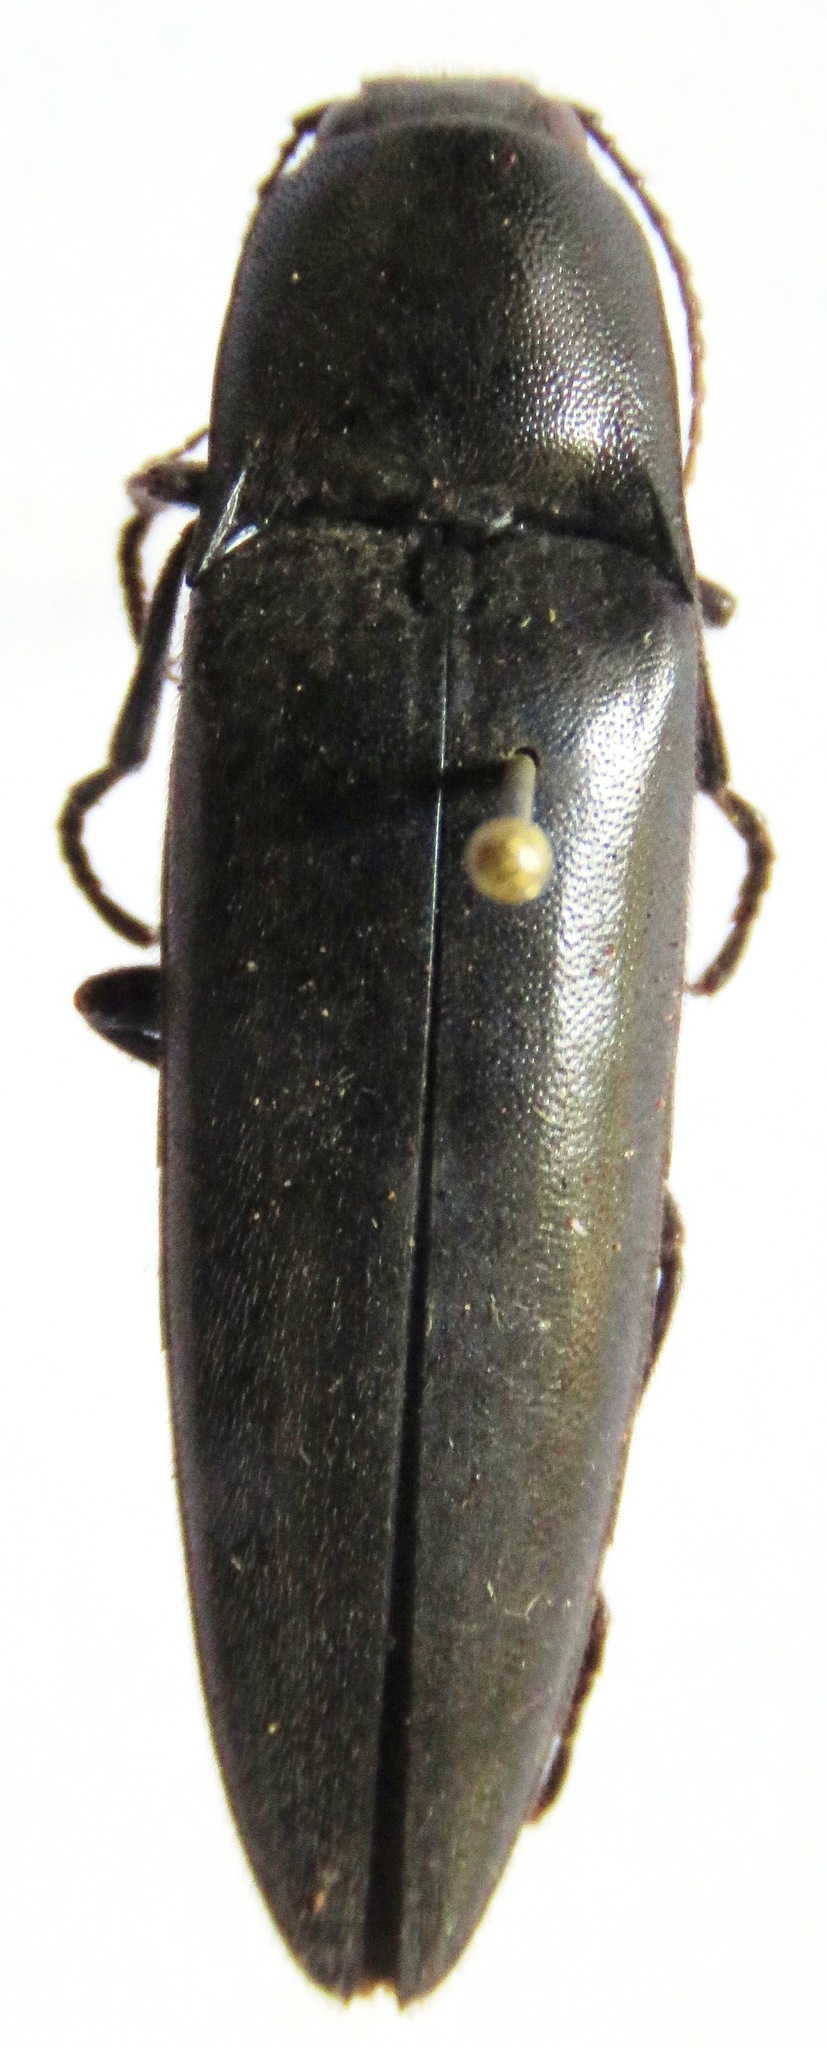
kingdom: Animalia
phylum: Arthropoda
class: Insecta
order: Coleoptera
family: Elateridae
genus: Orthostethus
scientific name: Orthostethus
